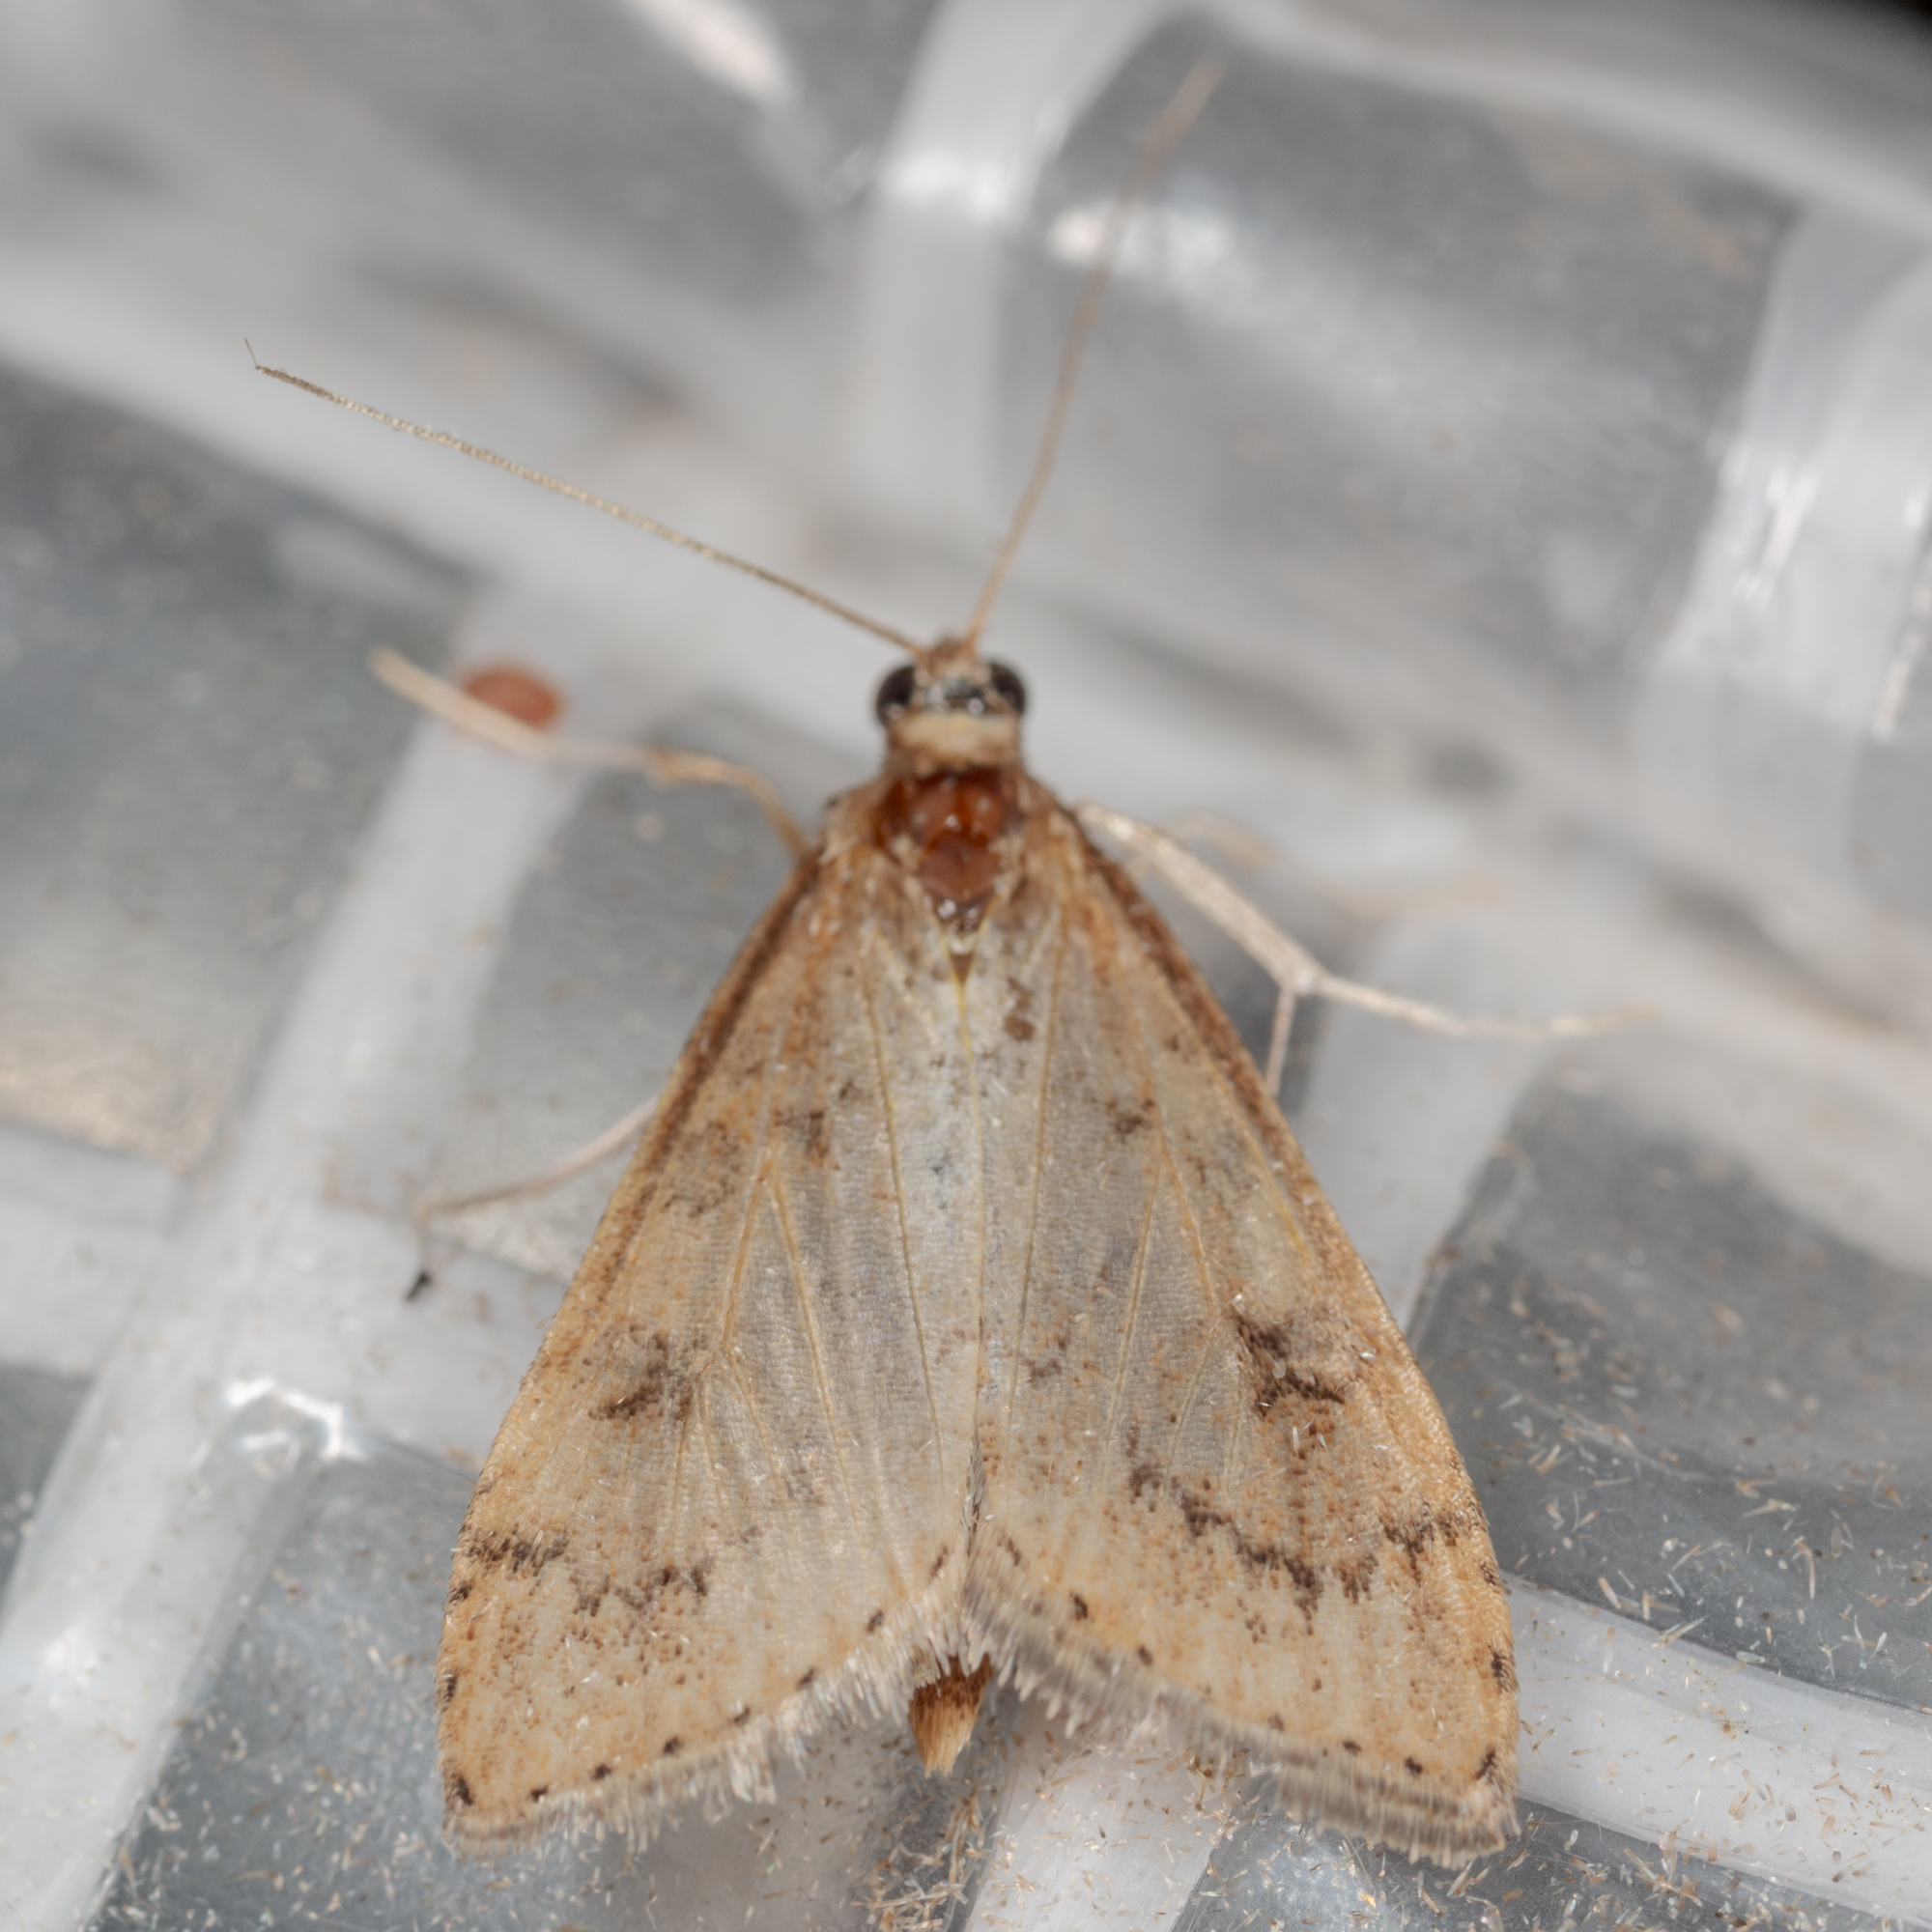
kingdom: Animalia
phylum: Arthropoda
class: Insecta
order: Lepidoptera
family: Crambidae
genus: Udea
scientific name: Udea rubigalis
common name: Celery leaftier moth
